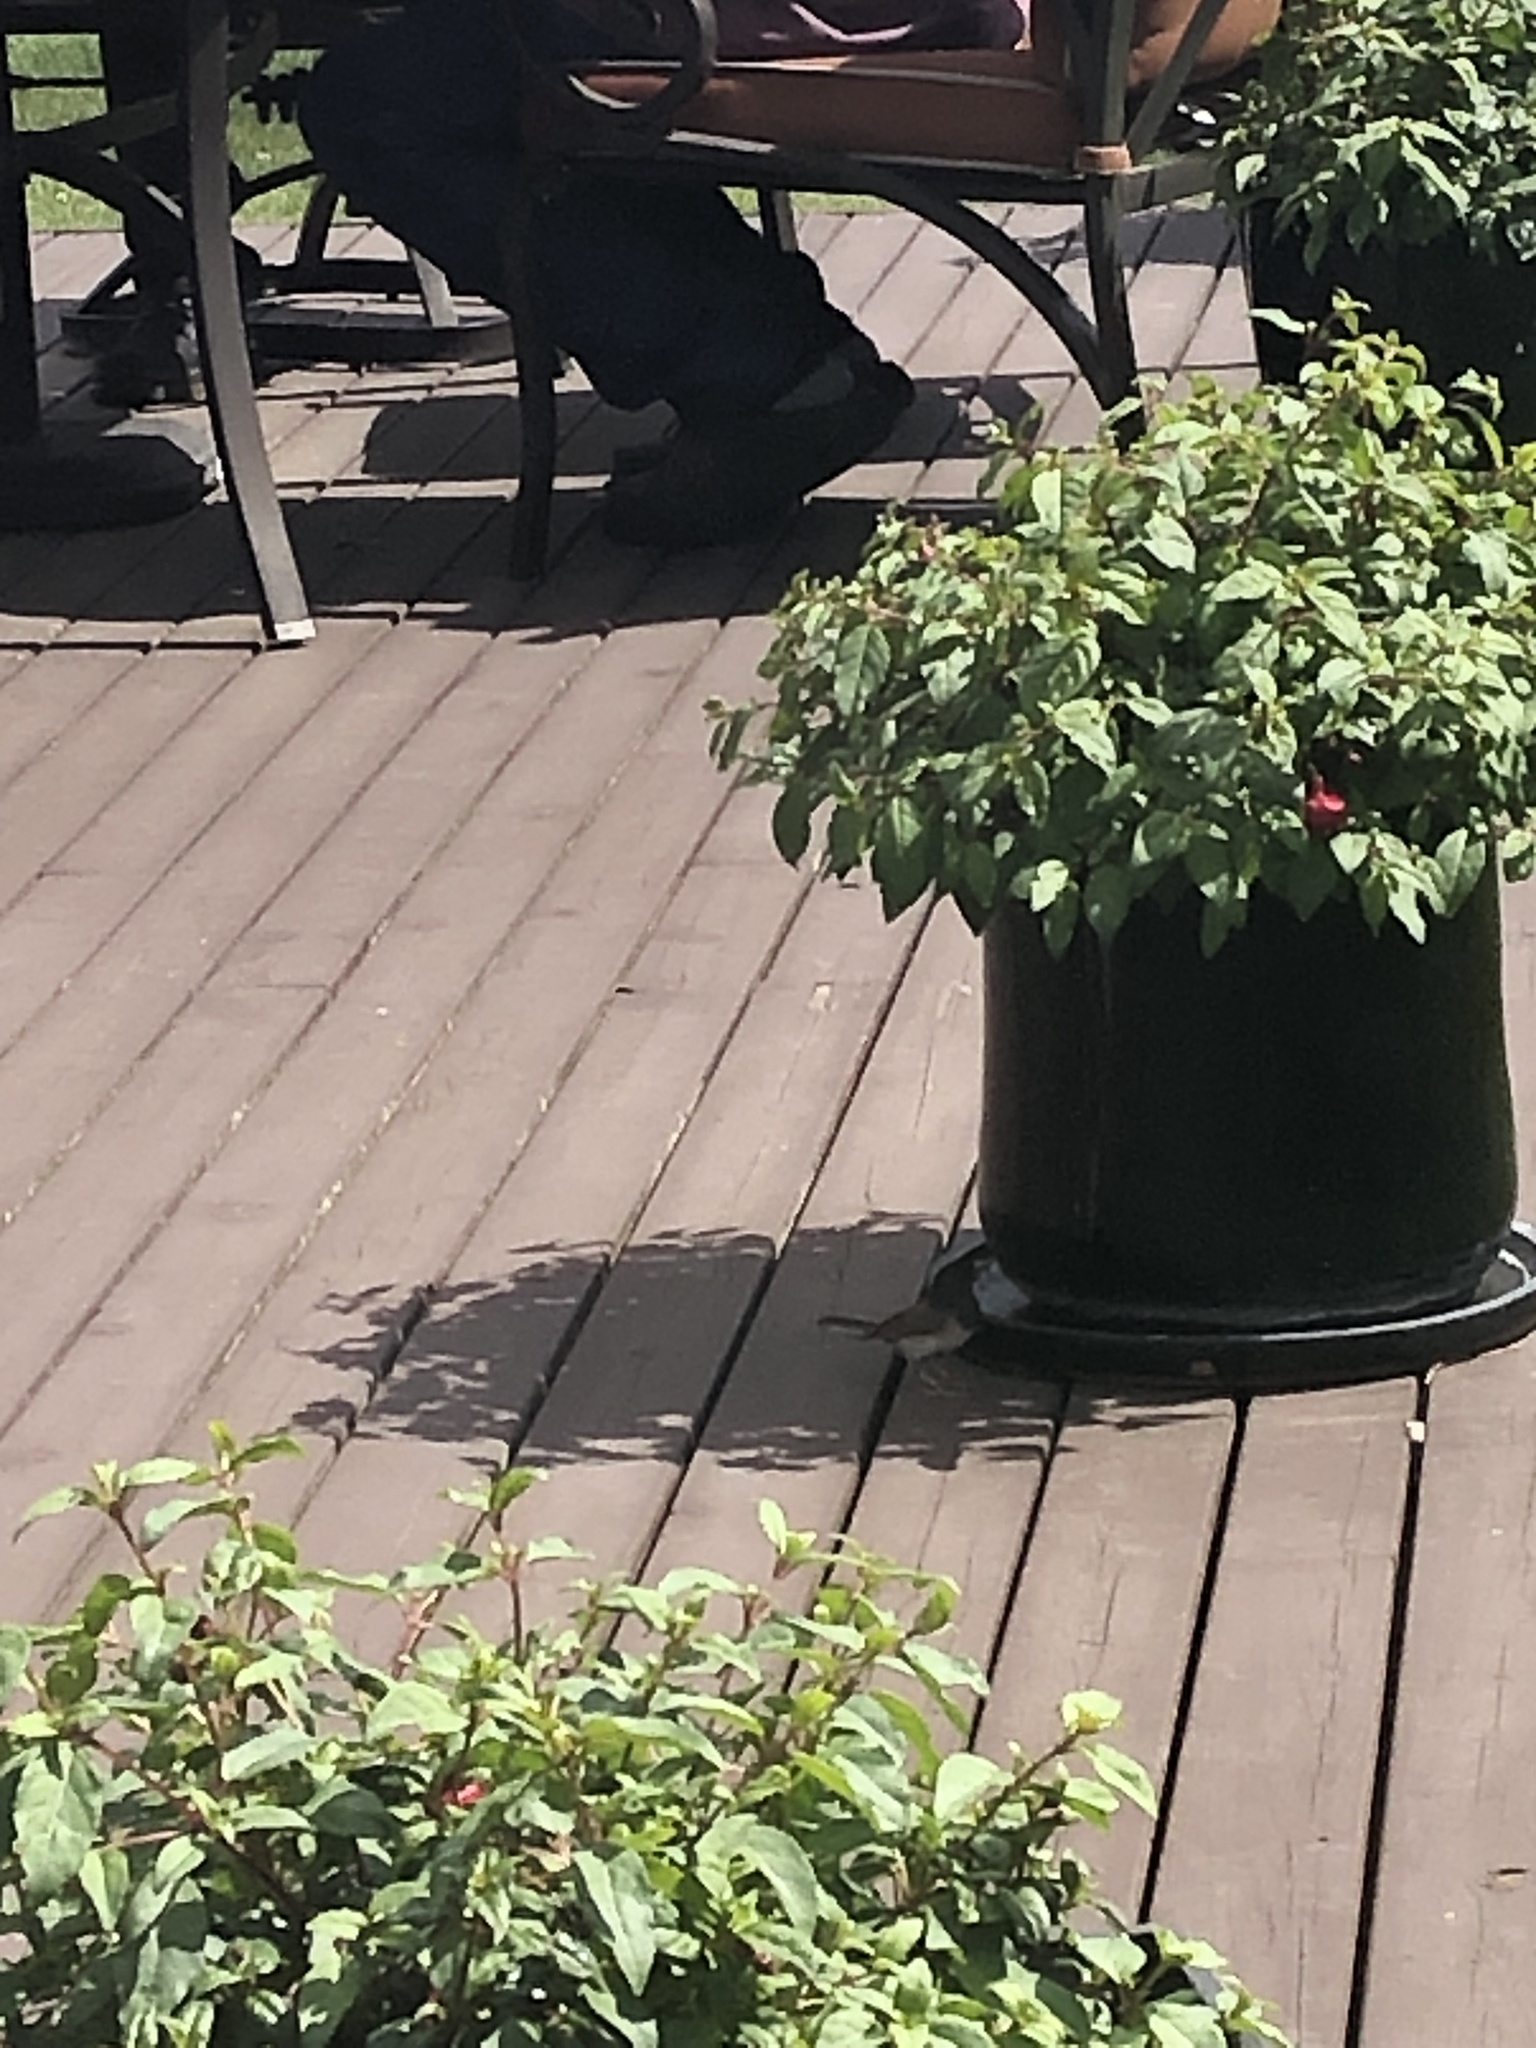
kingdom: Animalia
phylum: Chordata
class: Aves
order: Passeriformes
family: Passerellidae
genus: Junco
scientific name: Junco hyemalis
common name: Dark-eyed junco
